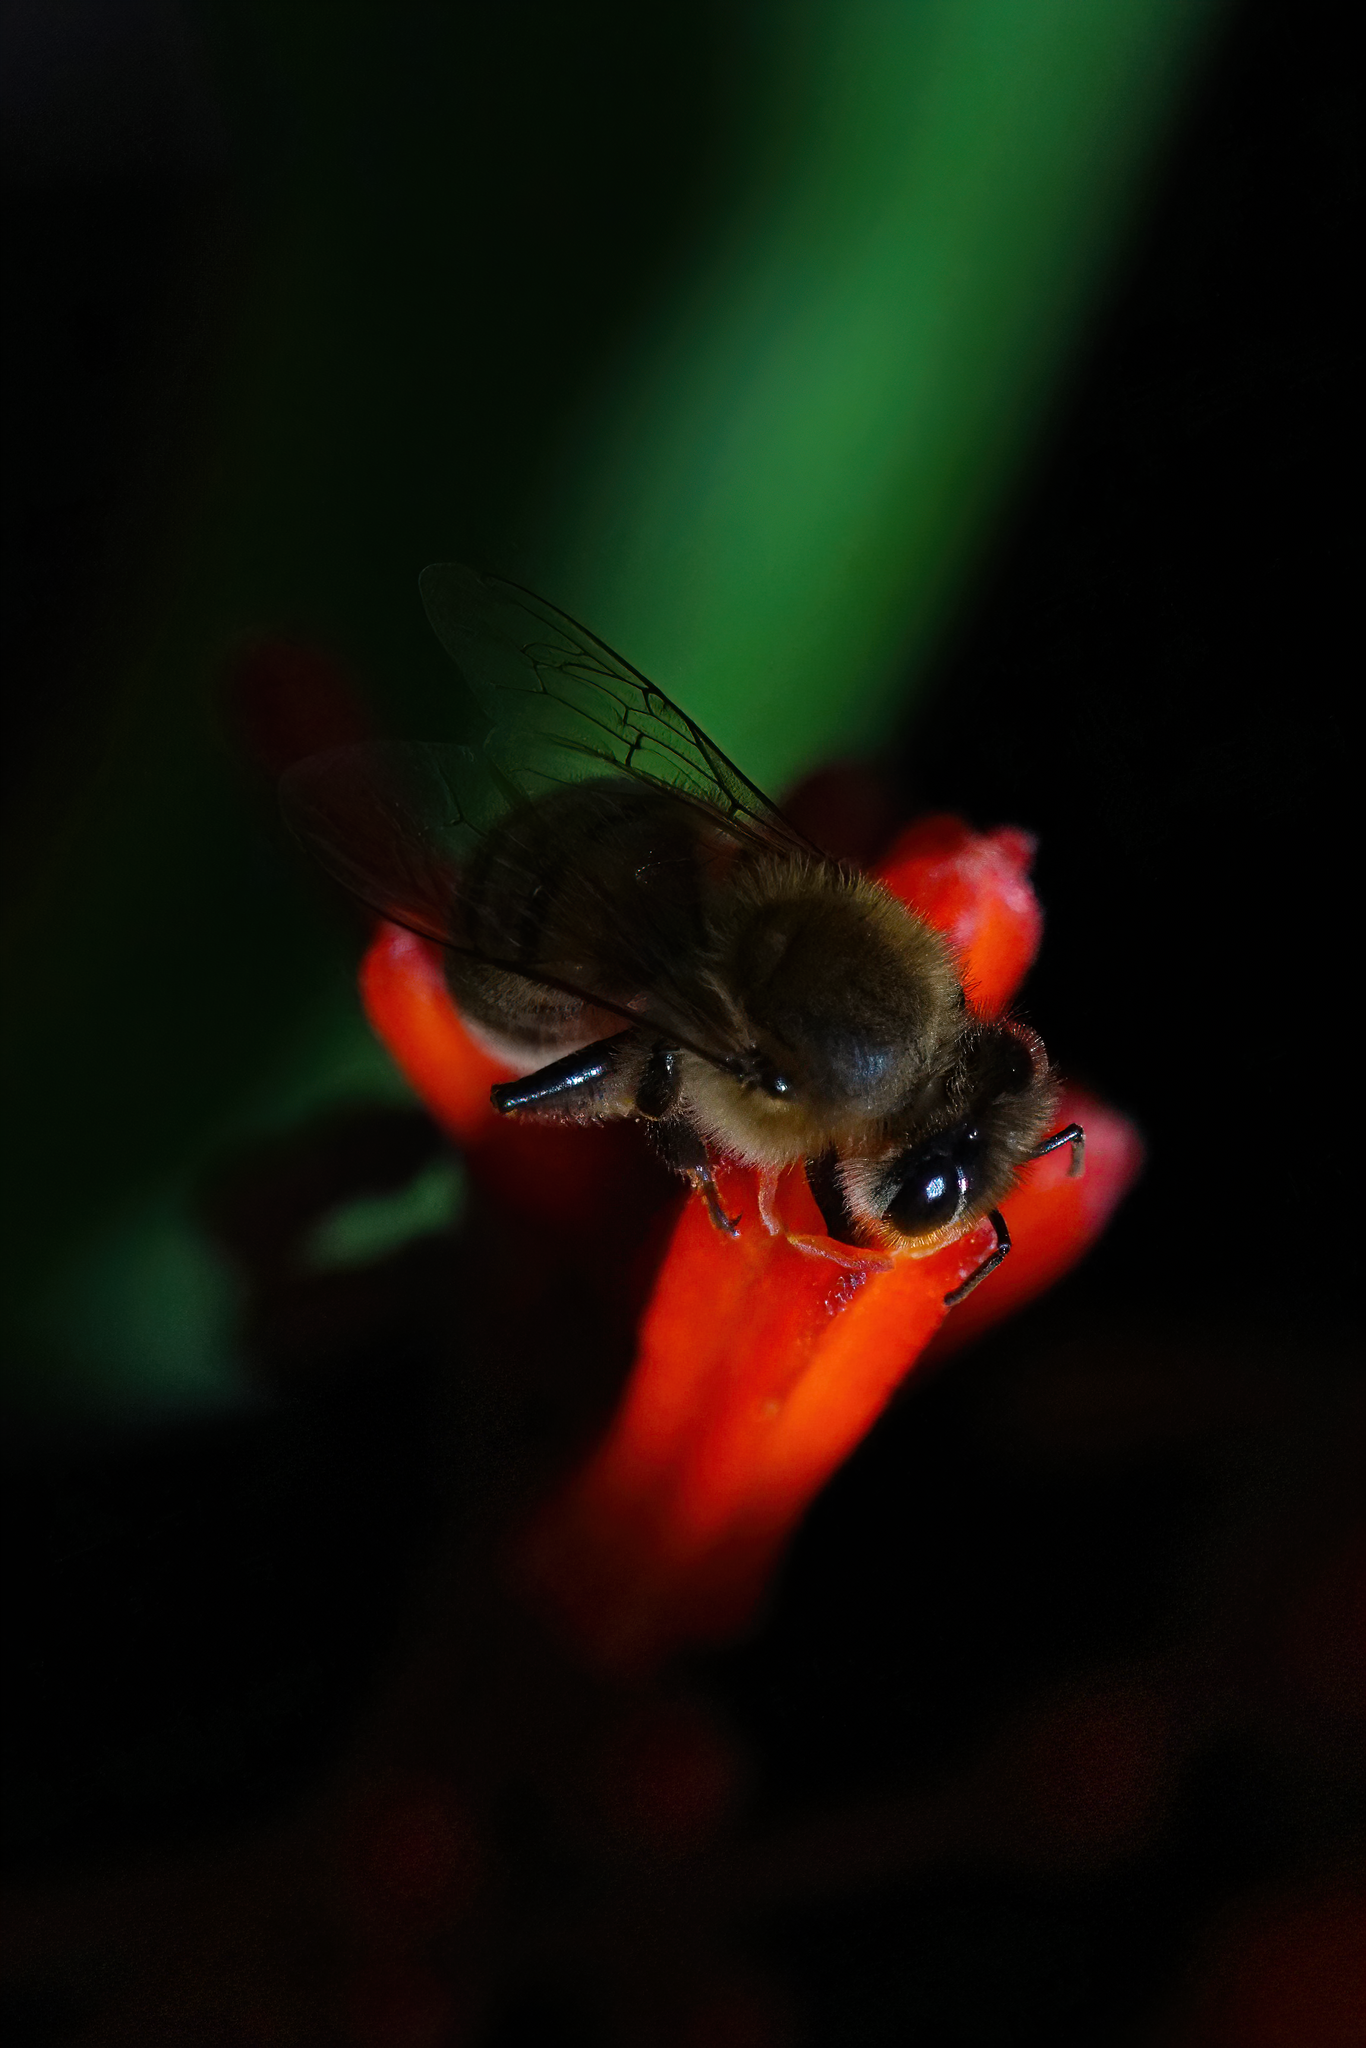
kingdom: Animalia
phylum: Arthropoda
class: Insecta
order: Hymenoptera
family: Apidae
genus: Apis
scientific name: Apis mellifera
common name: Honey bee
